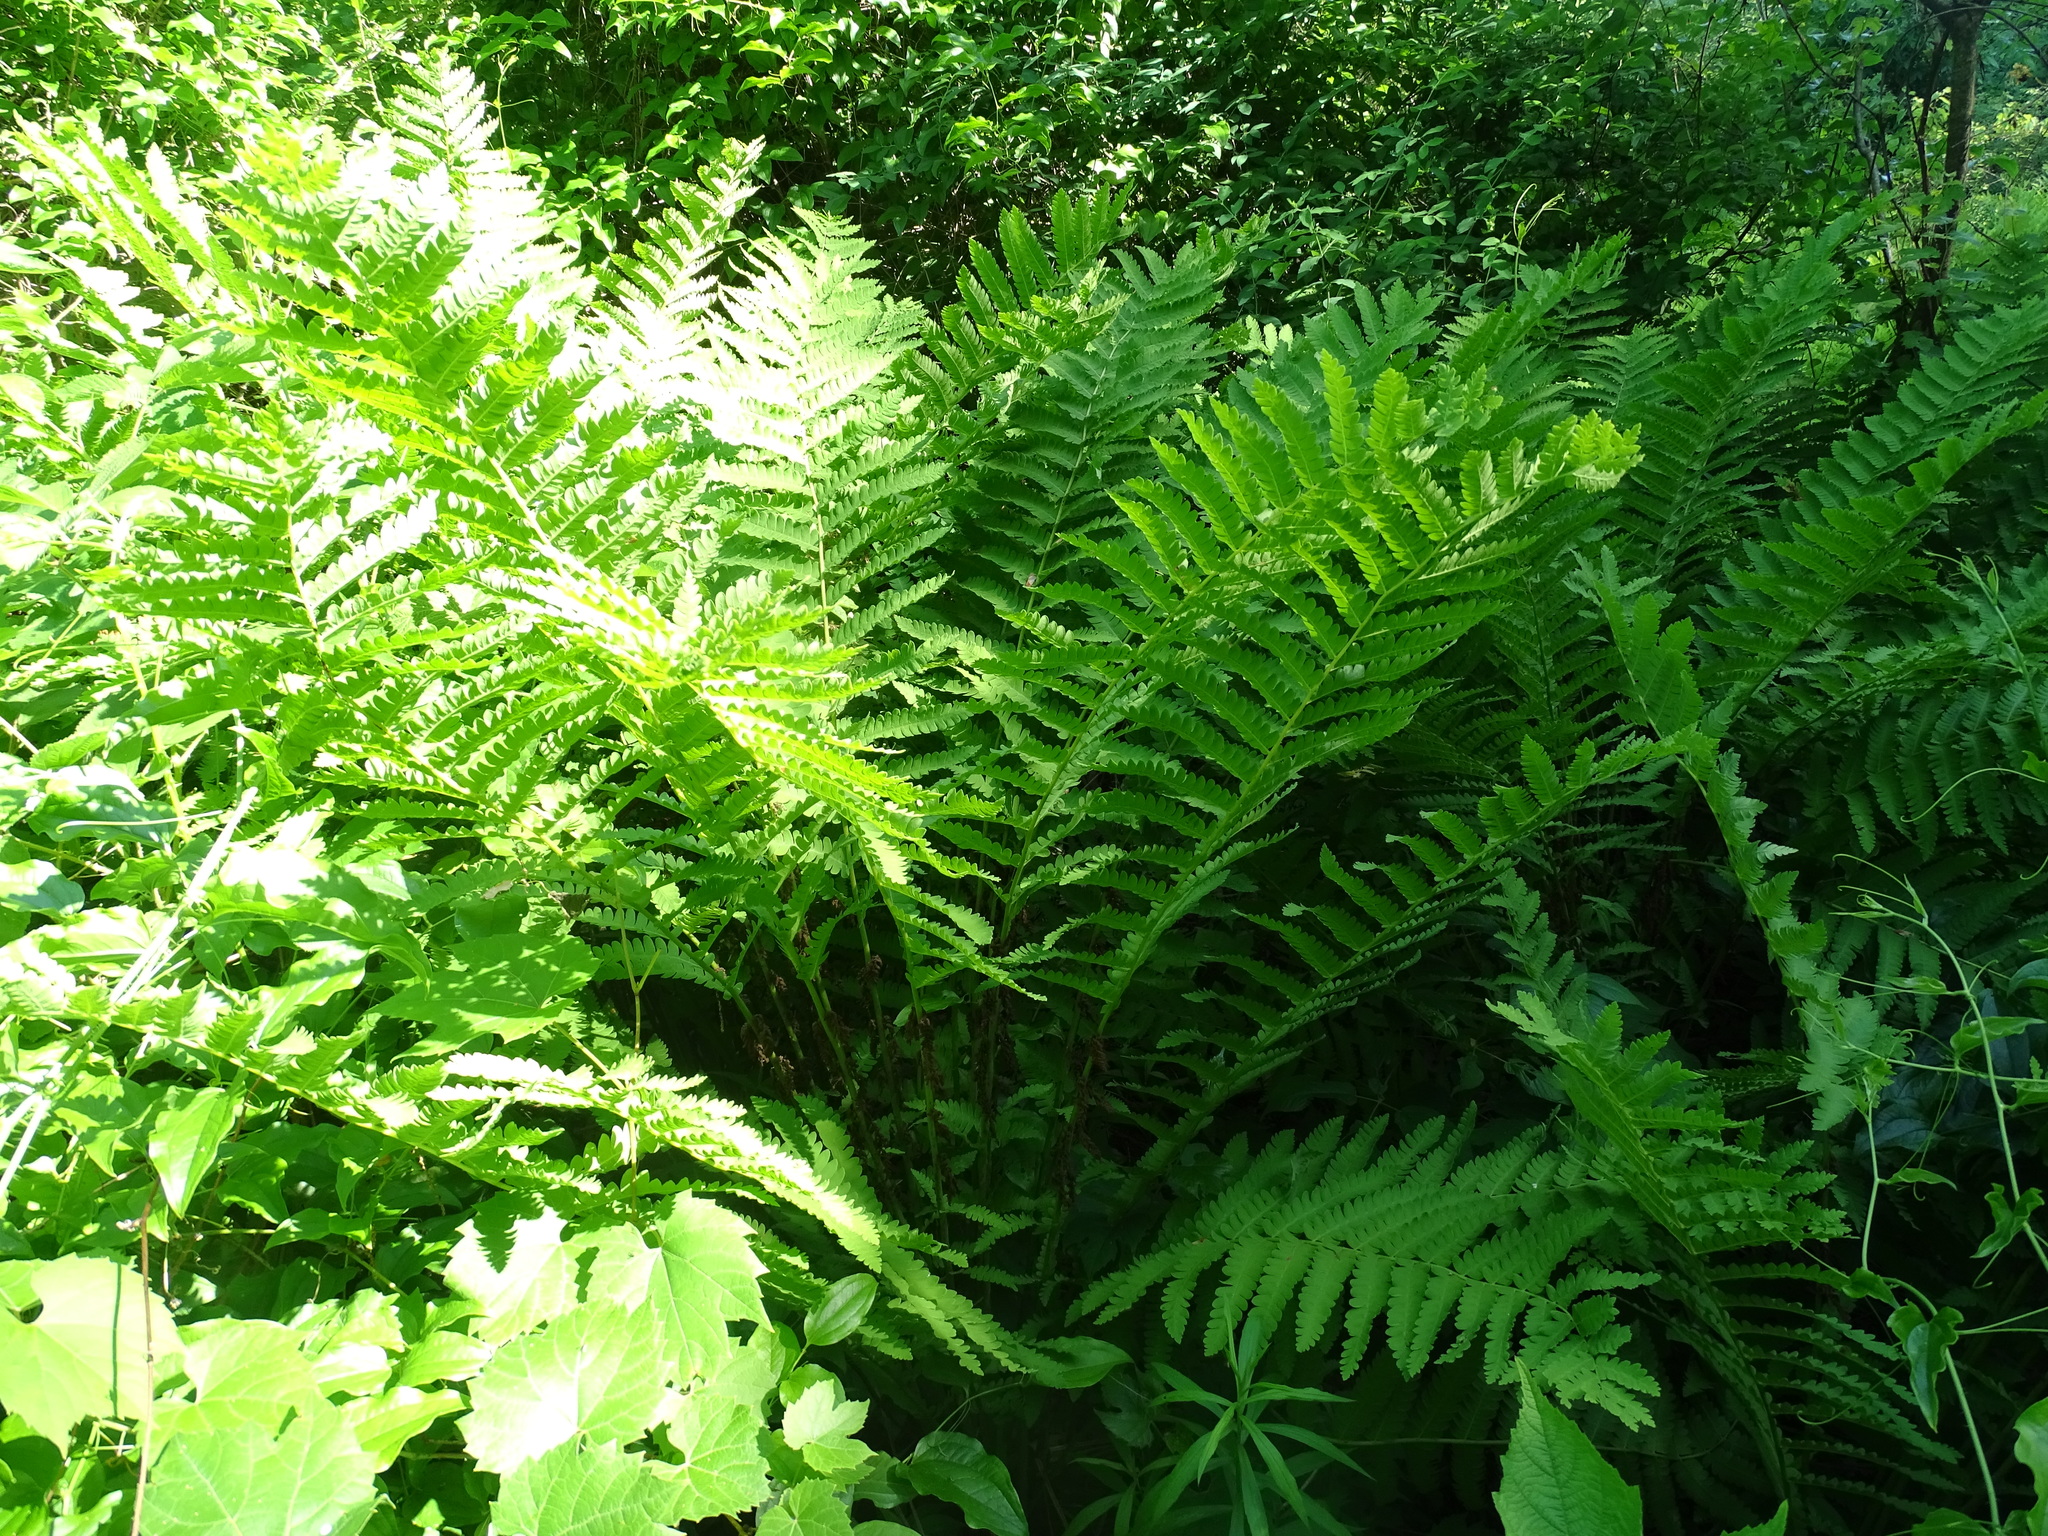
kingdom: Plantae
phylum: Tracheophyta
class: Polypodiopsida
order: Osmundales
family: Osmundaceae
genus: Claytosmunda
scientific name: Claytosmunda claytoniana
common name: Clayton's fern
